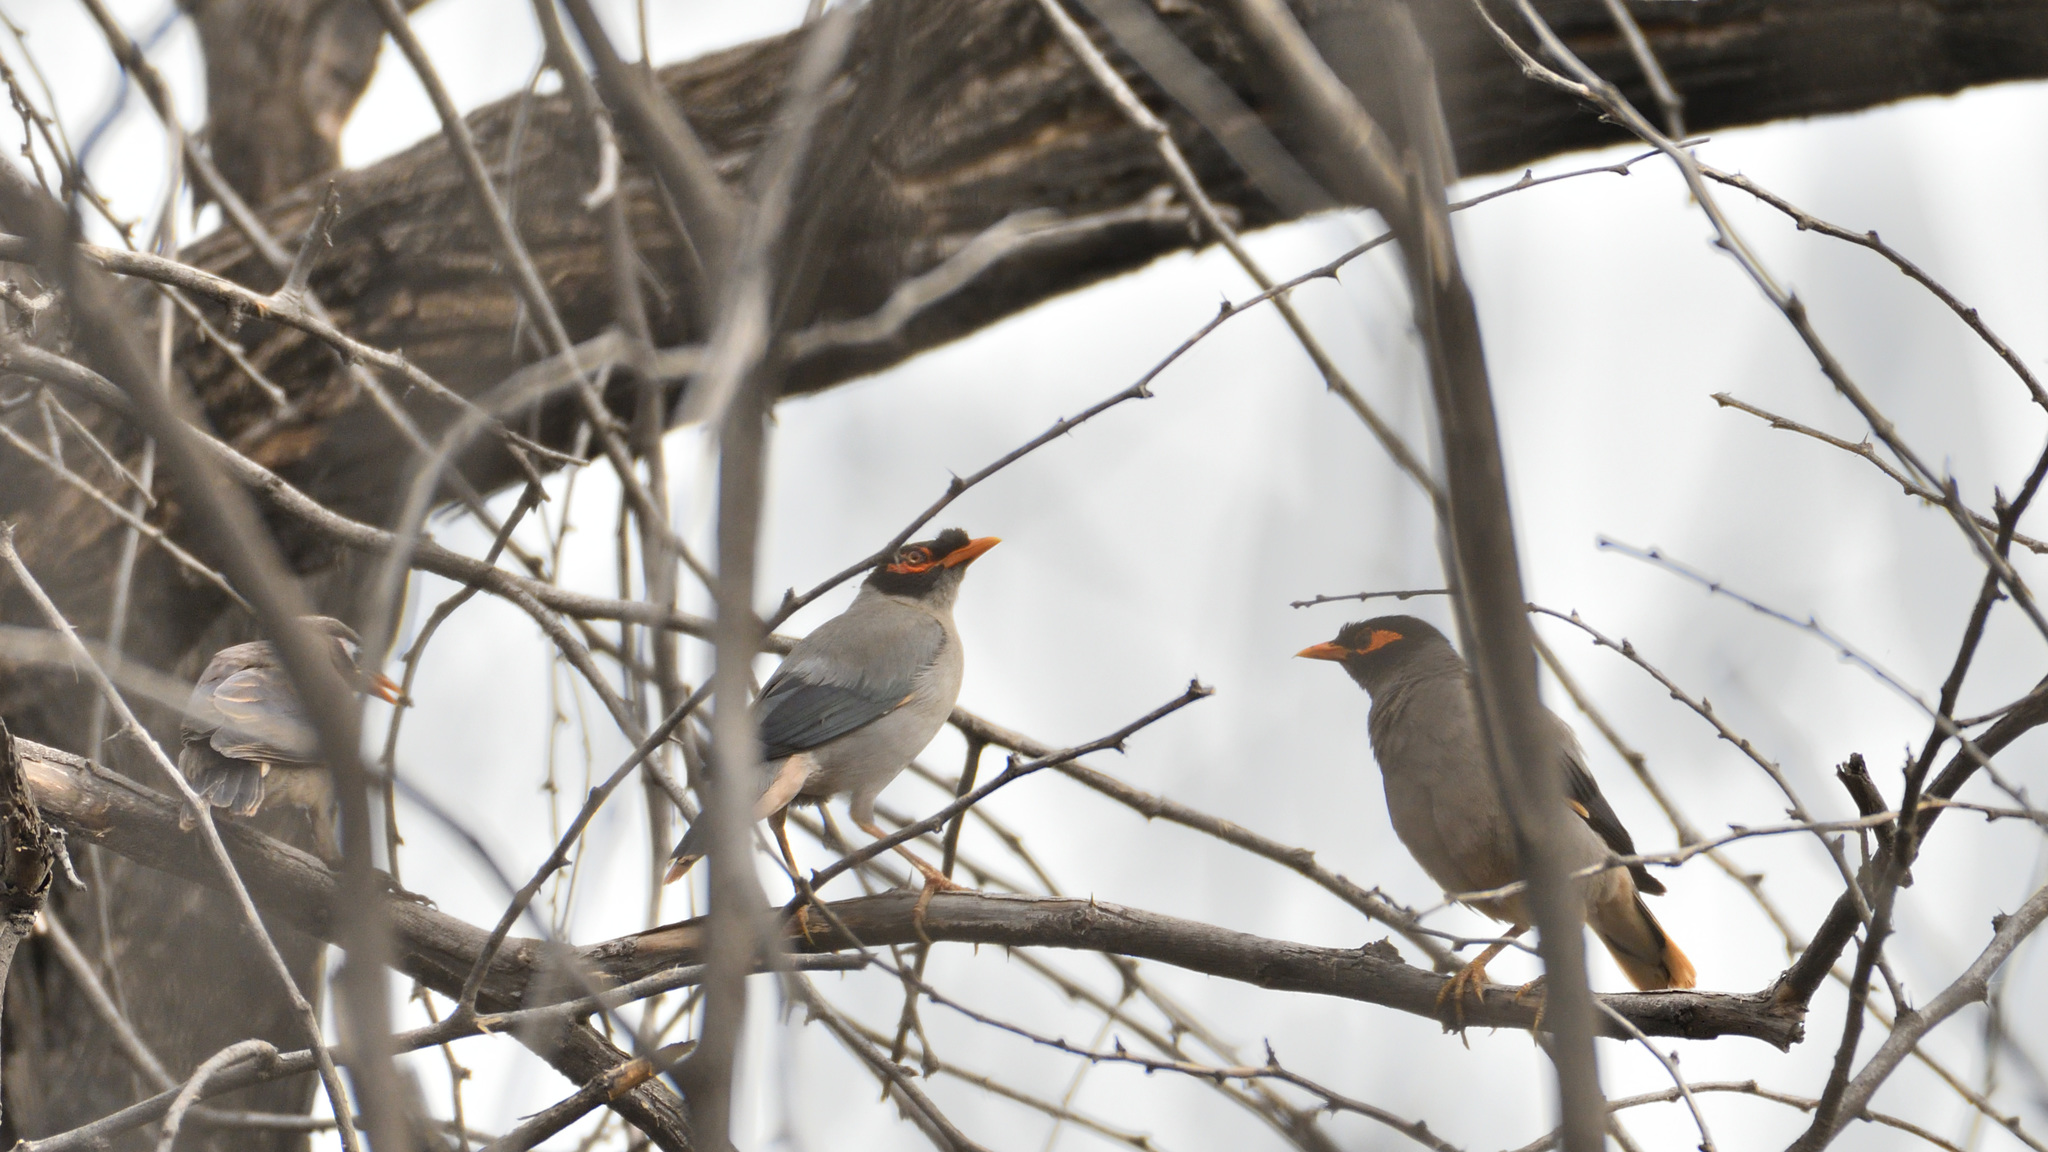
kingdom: Animalia
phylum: Chordata
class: Aves
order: Passeriformes
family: Sturnidae
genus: Acridotheres
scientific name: Acridotheres ginginianus
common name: Bank myna
